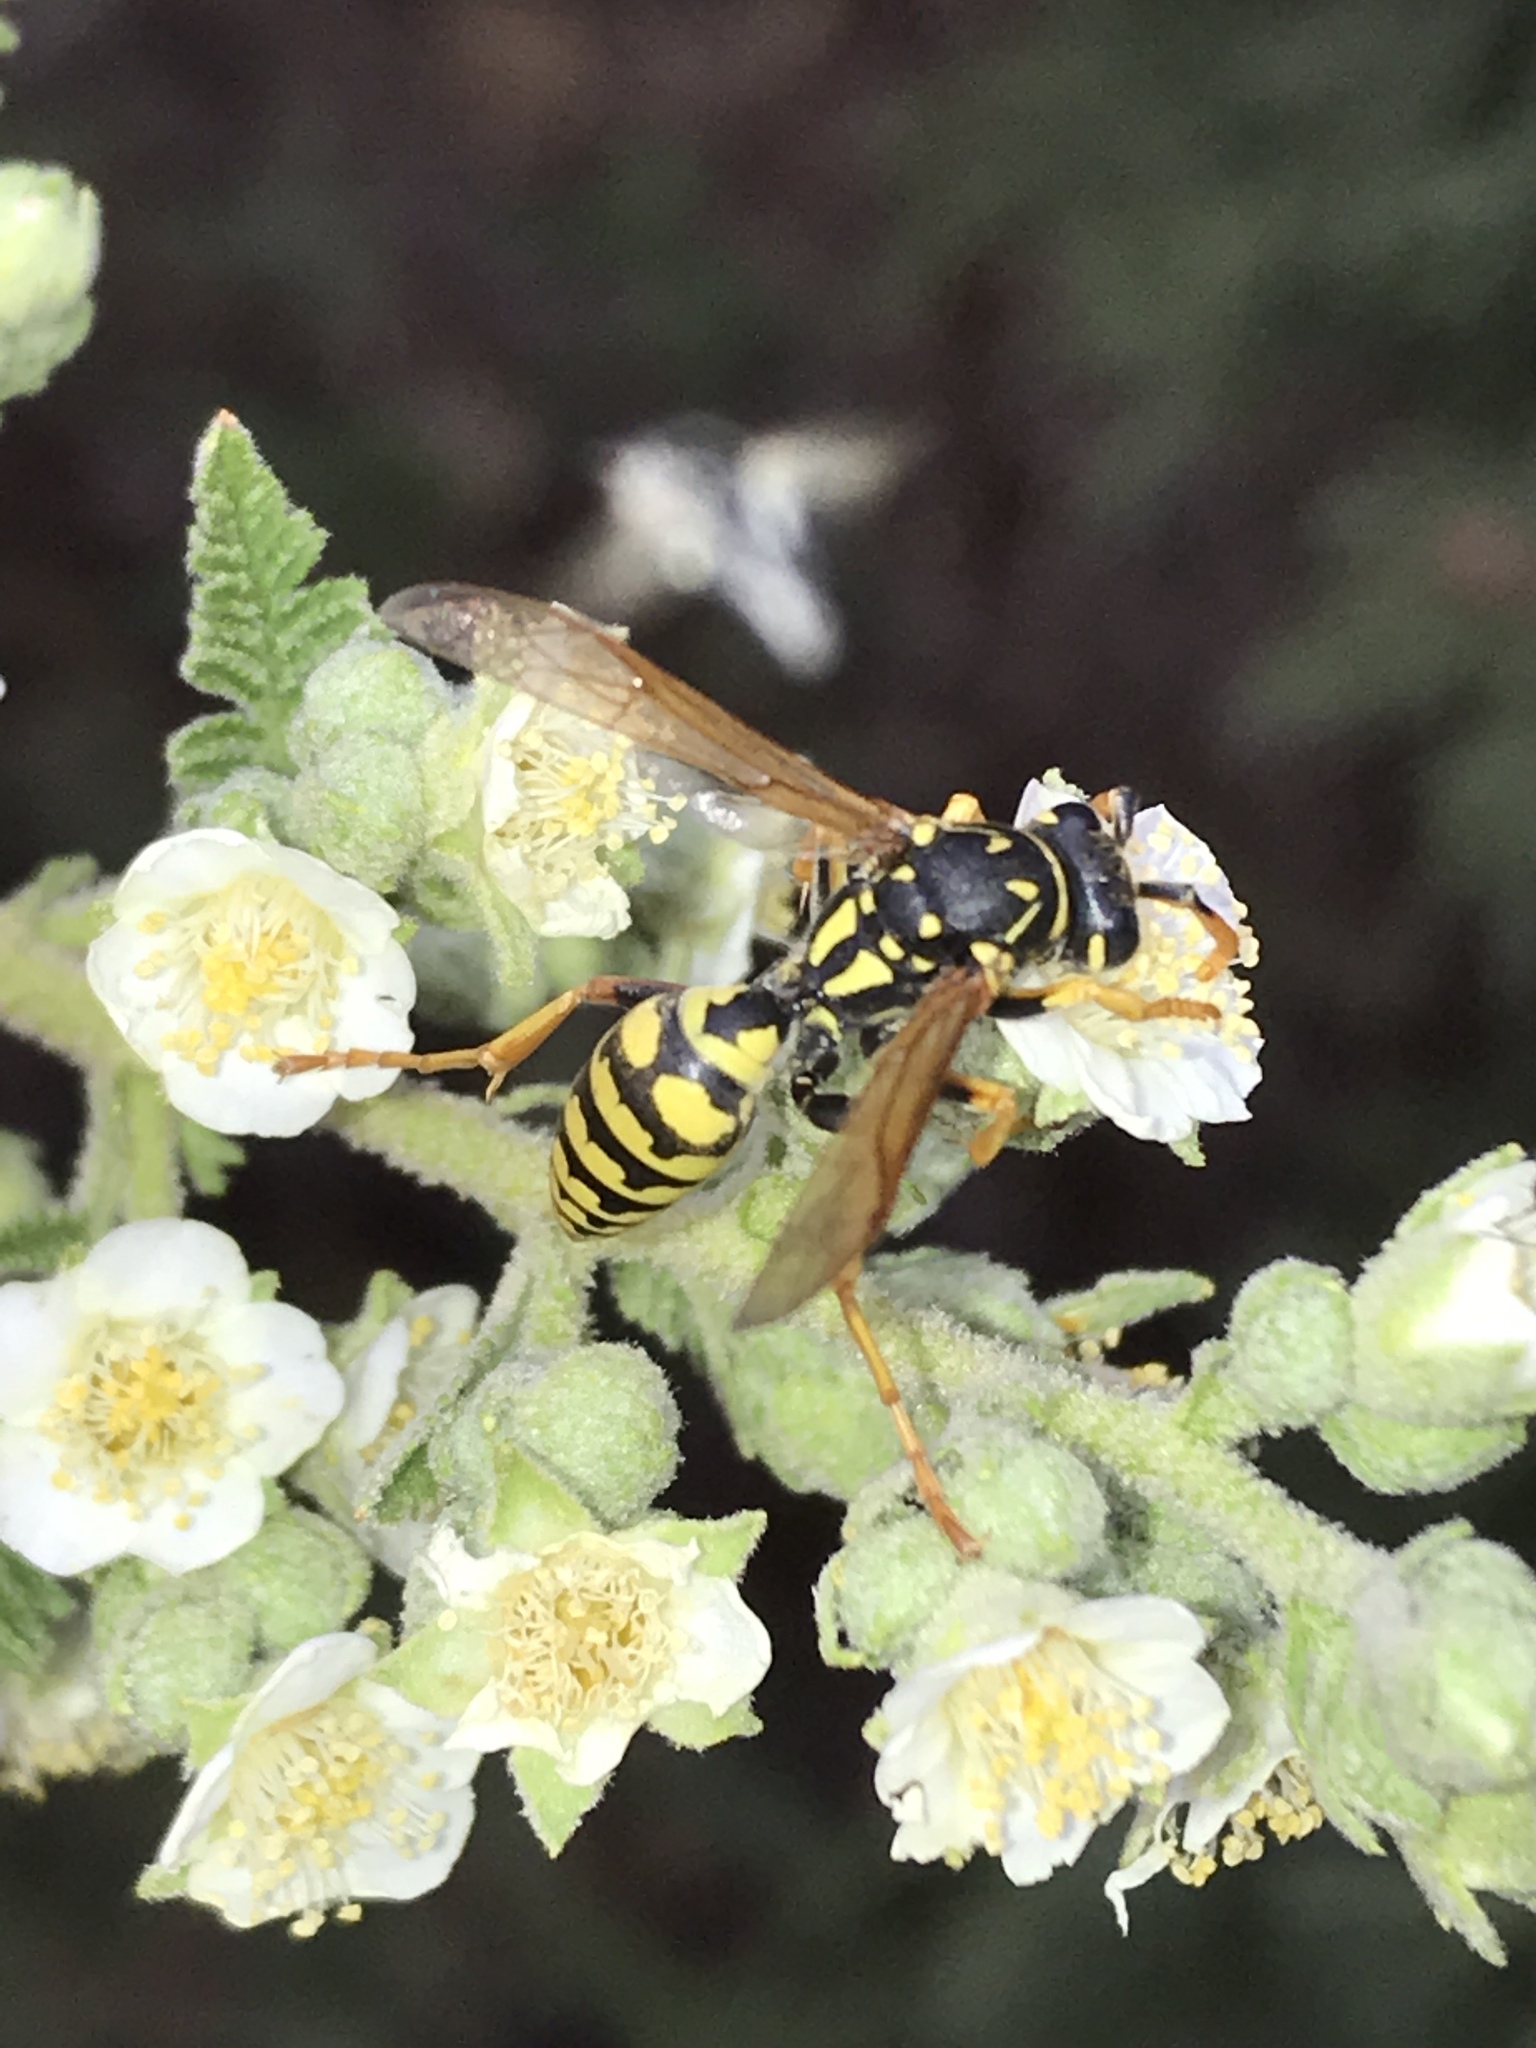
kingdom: Animalia
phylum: Arthropoda
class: Insecta
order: Hymenoptera
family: Eumenidae
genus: Polistes
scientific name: Polistes dominula
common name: Paper wasp
